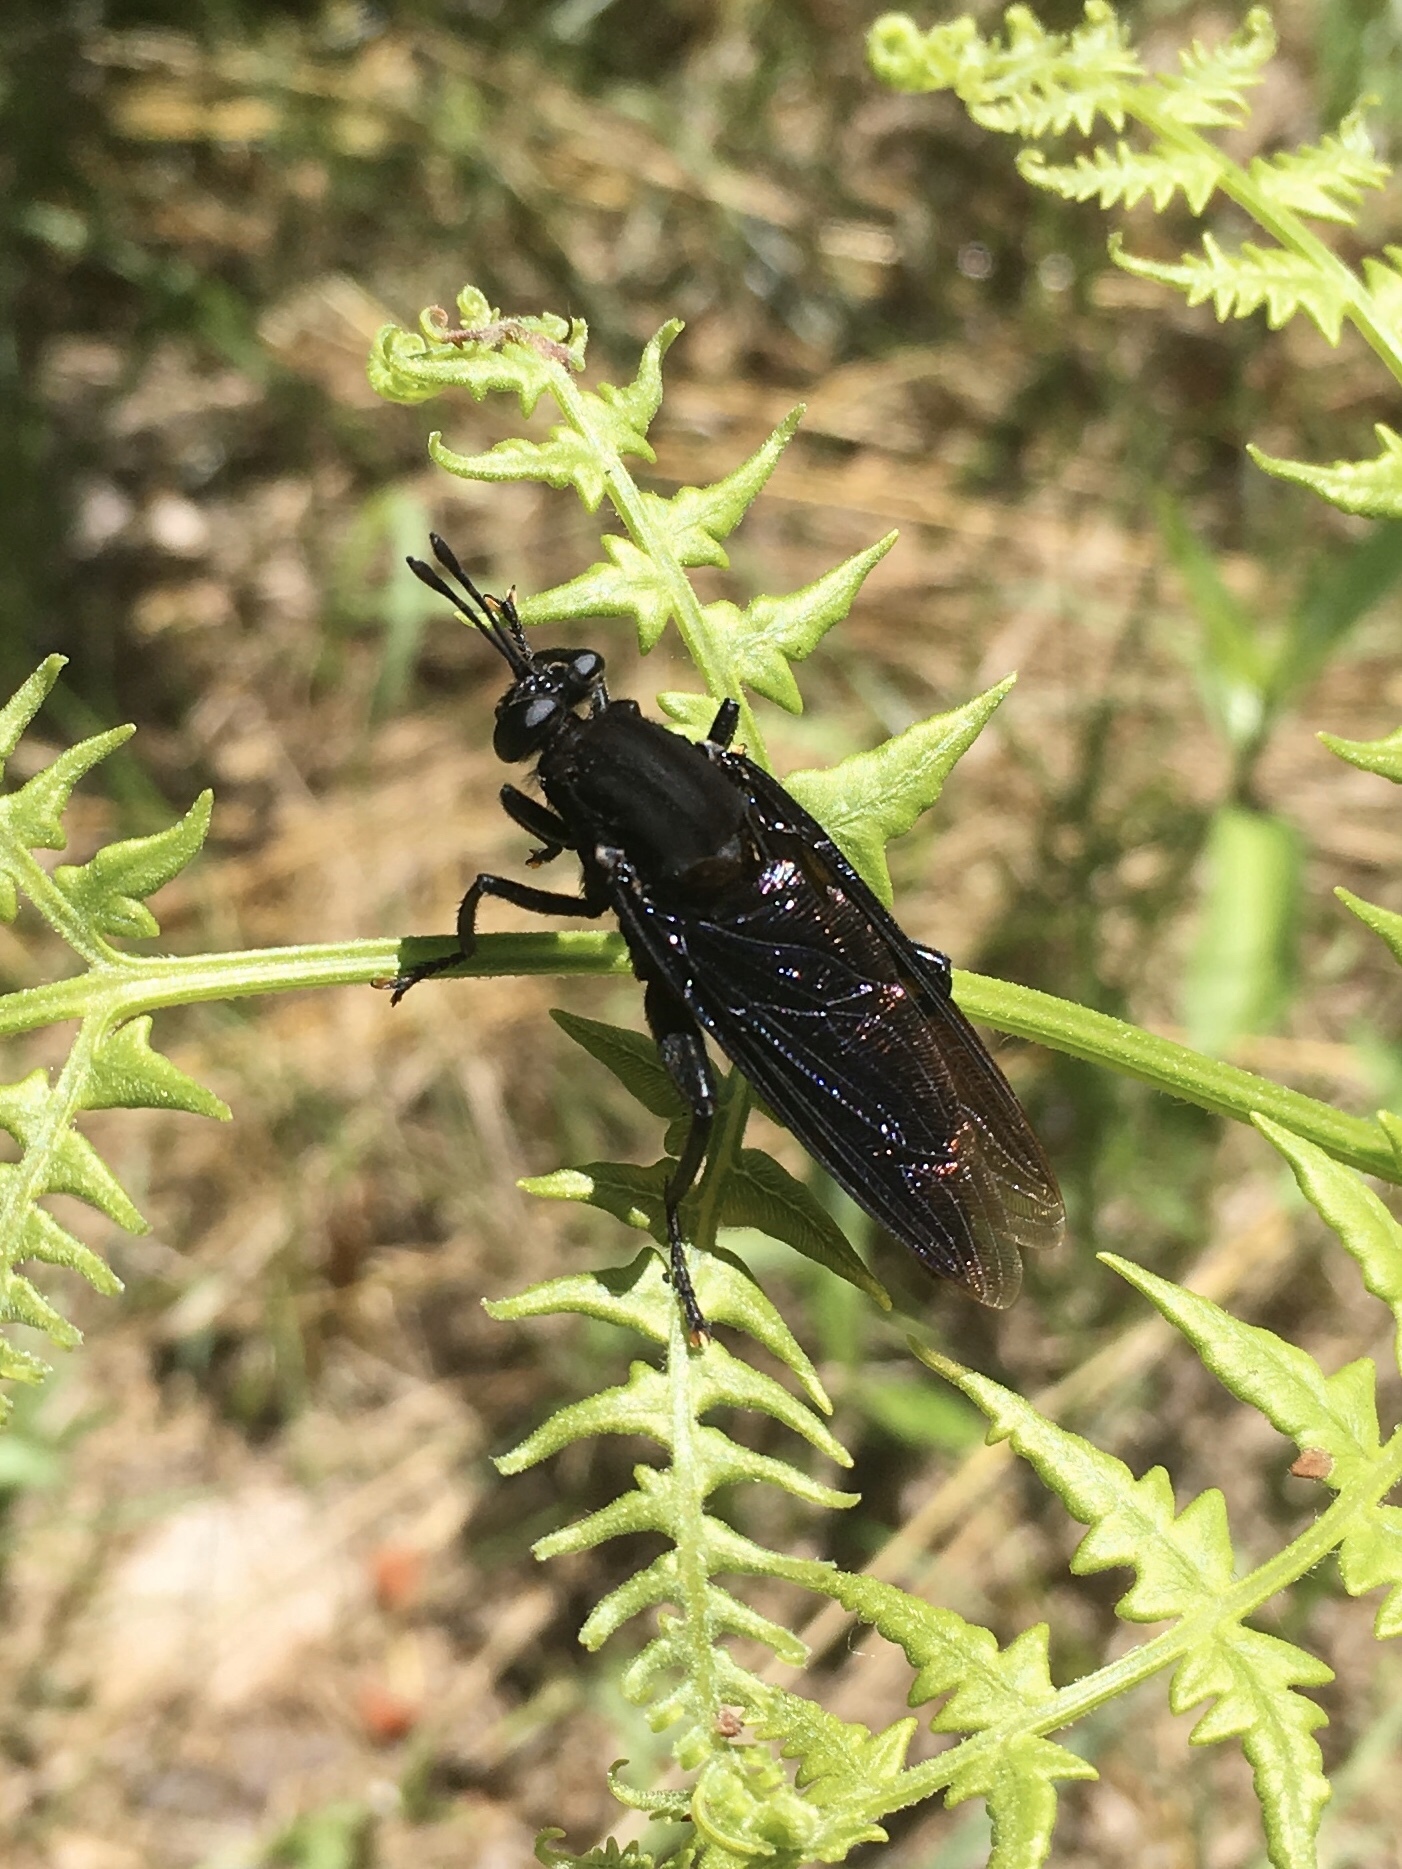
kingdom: Animalia
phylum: Arthropoda
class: Insecta
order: Diptera
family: Mydidae
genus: Mydas
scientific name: Mydas clavatus
